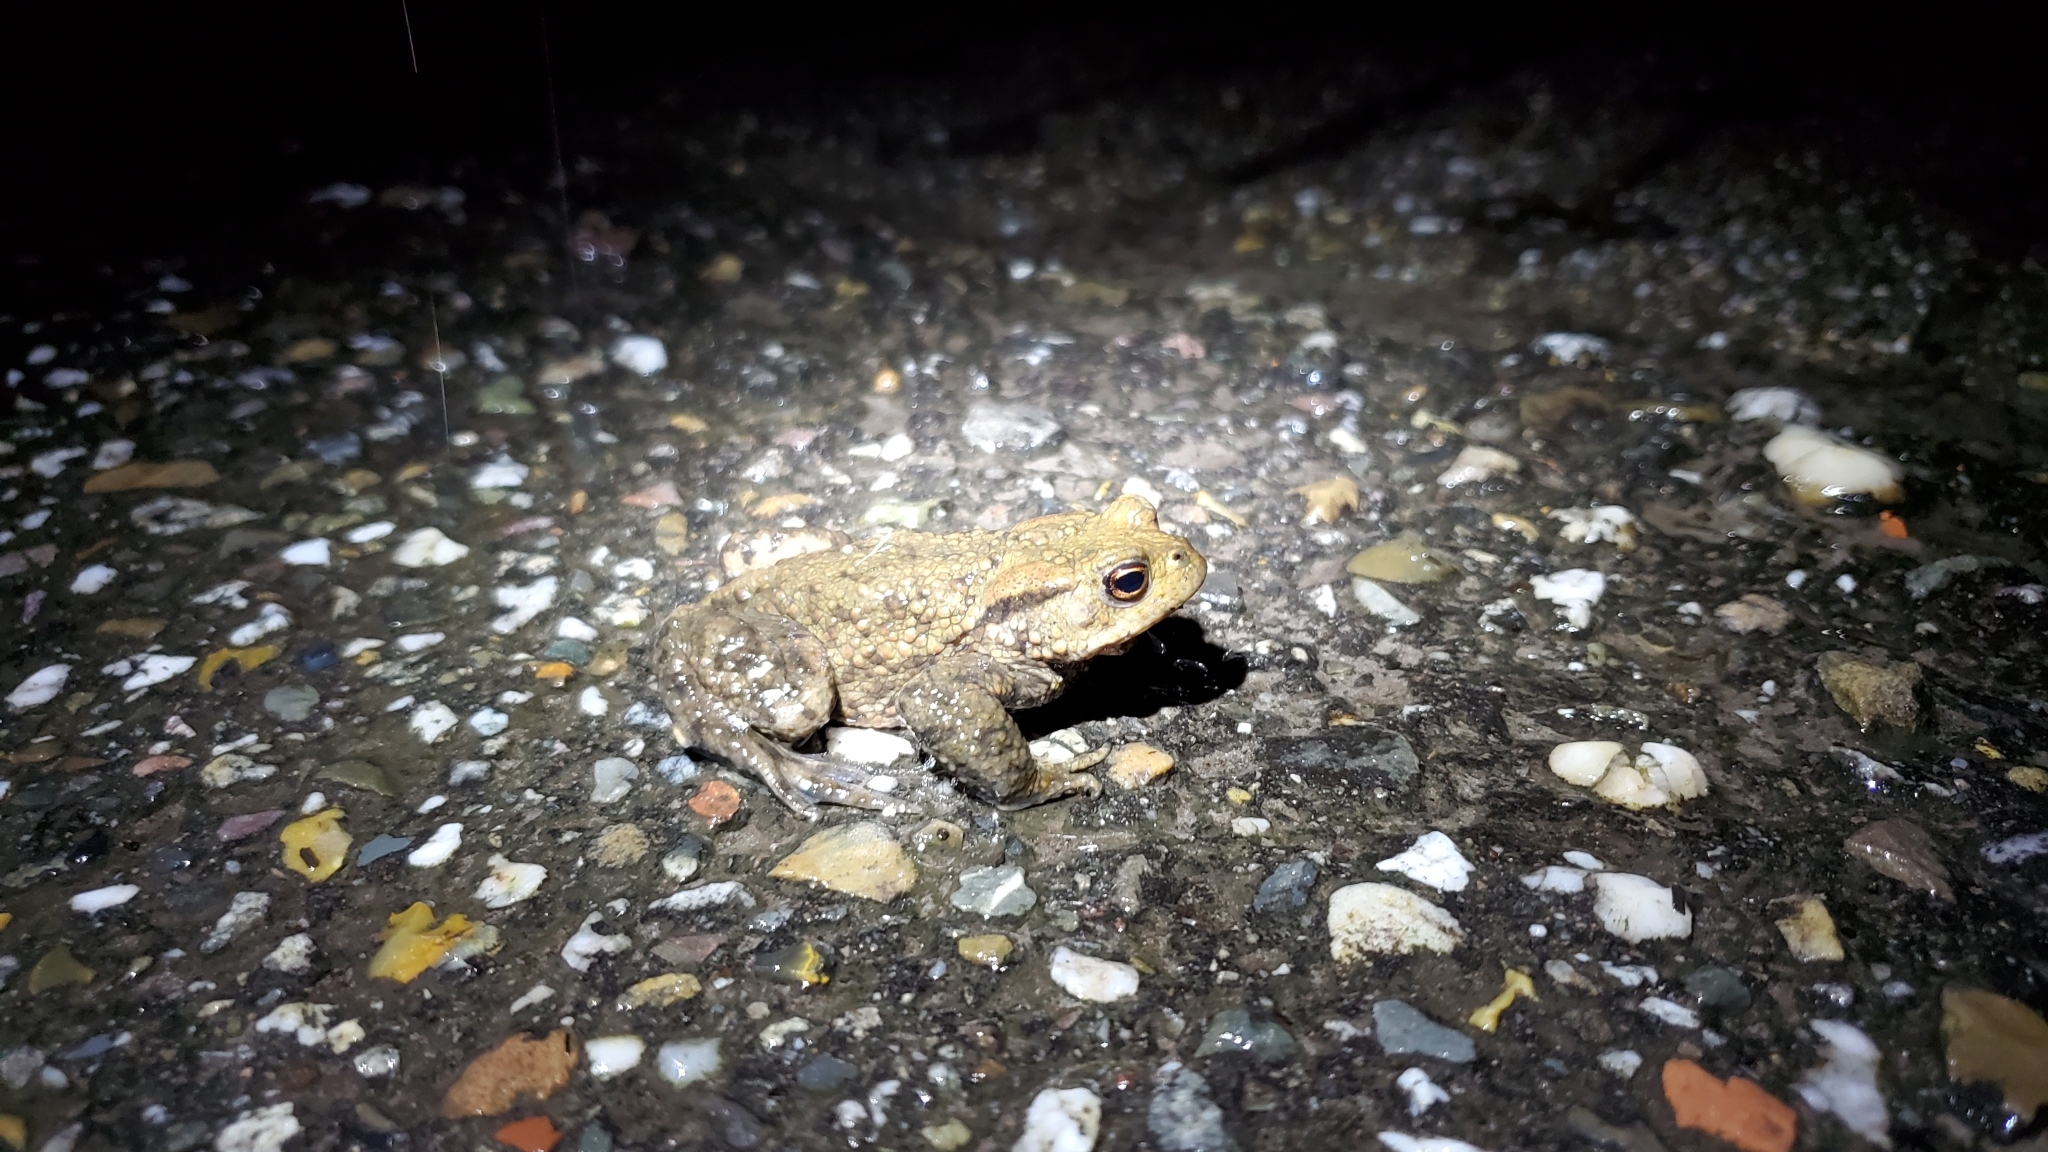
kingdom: Animalia
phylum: Chordata
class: Amphibia
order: Anura
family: Bufonidae
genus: Bufo
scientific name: Bufo bufo
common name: Common toad
